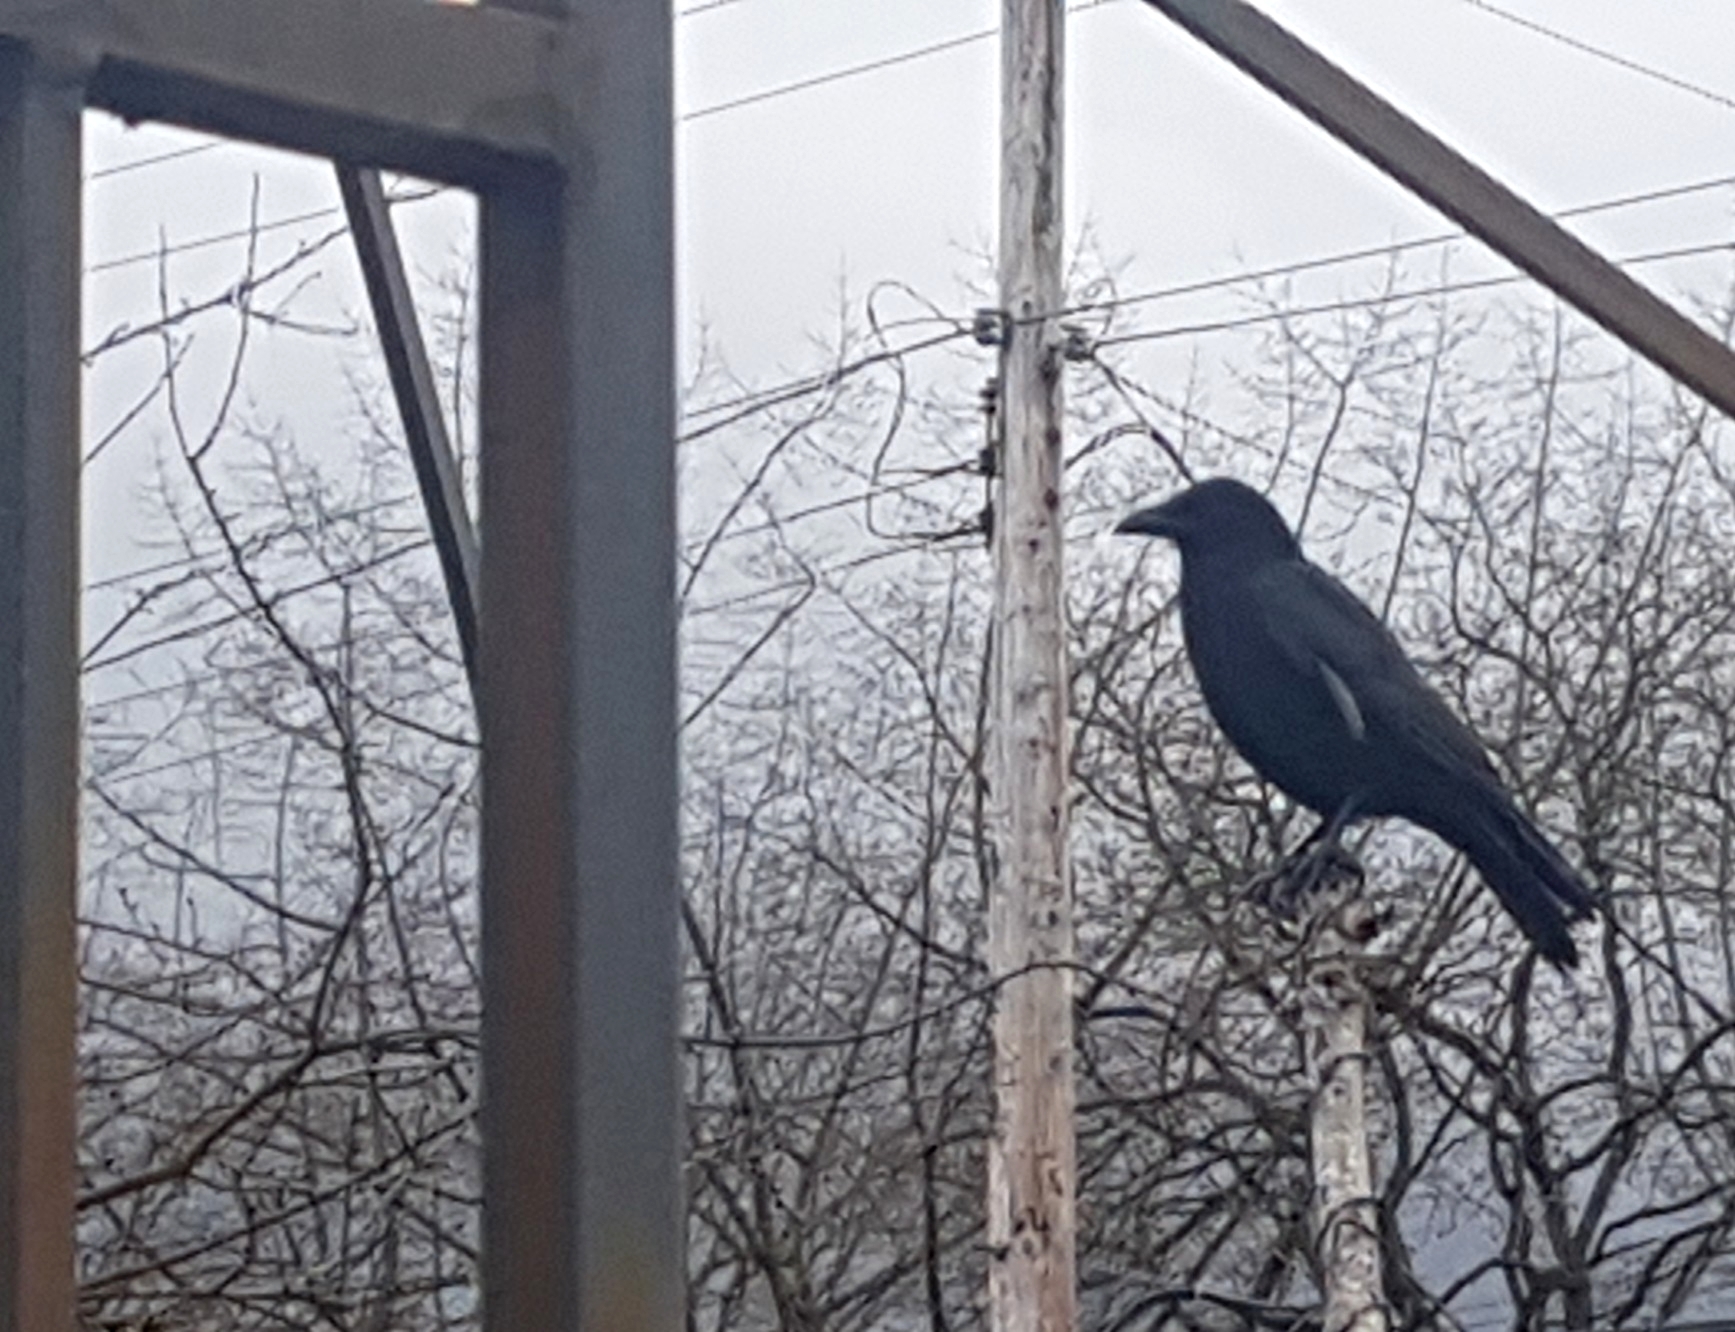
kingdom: Animalia
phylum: Chordata
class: Aves
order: Passeriformes
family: Corvidae
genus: Corvus
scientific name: Corvus brachyrhynchos
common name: American crow
